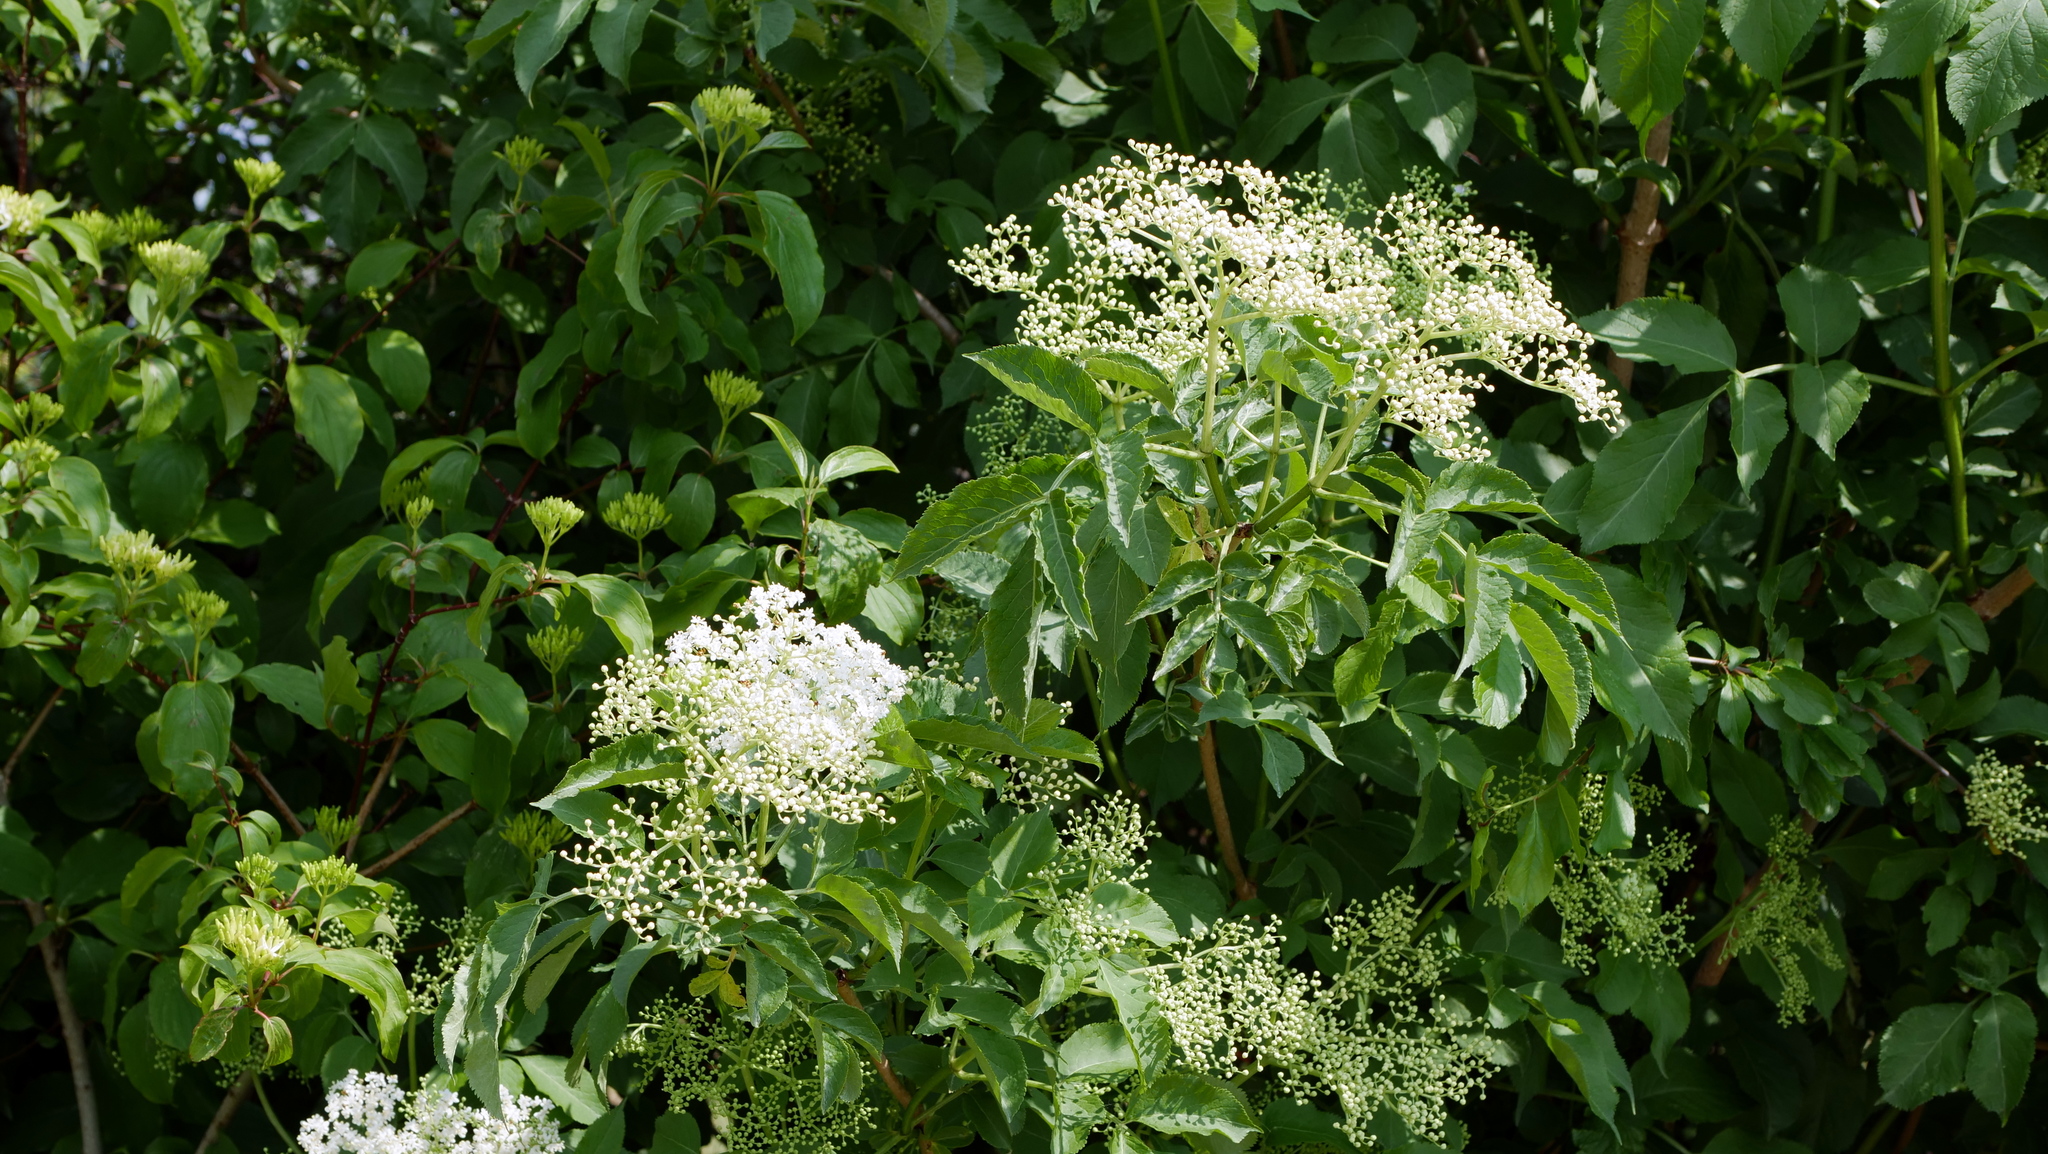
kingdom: Plantae
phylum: Tracheophyta
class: Magnoliopsida
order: Dipsacales
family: Viburnaceae
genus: Sambucus
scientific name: Sambucus nigra
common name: Elder
